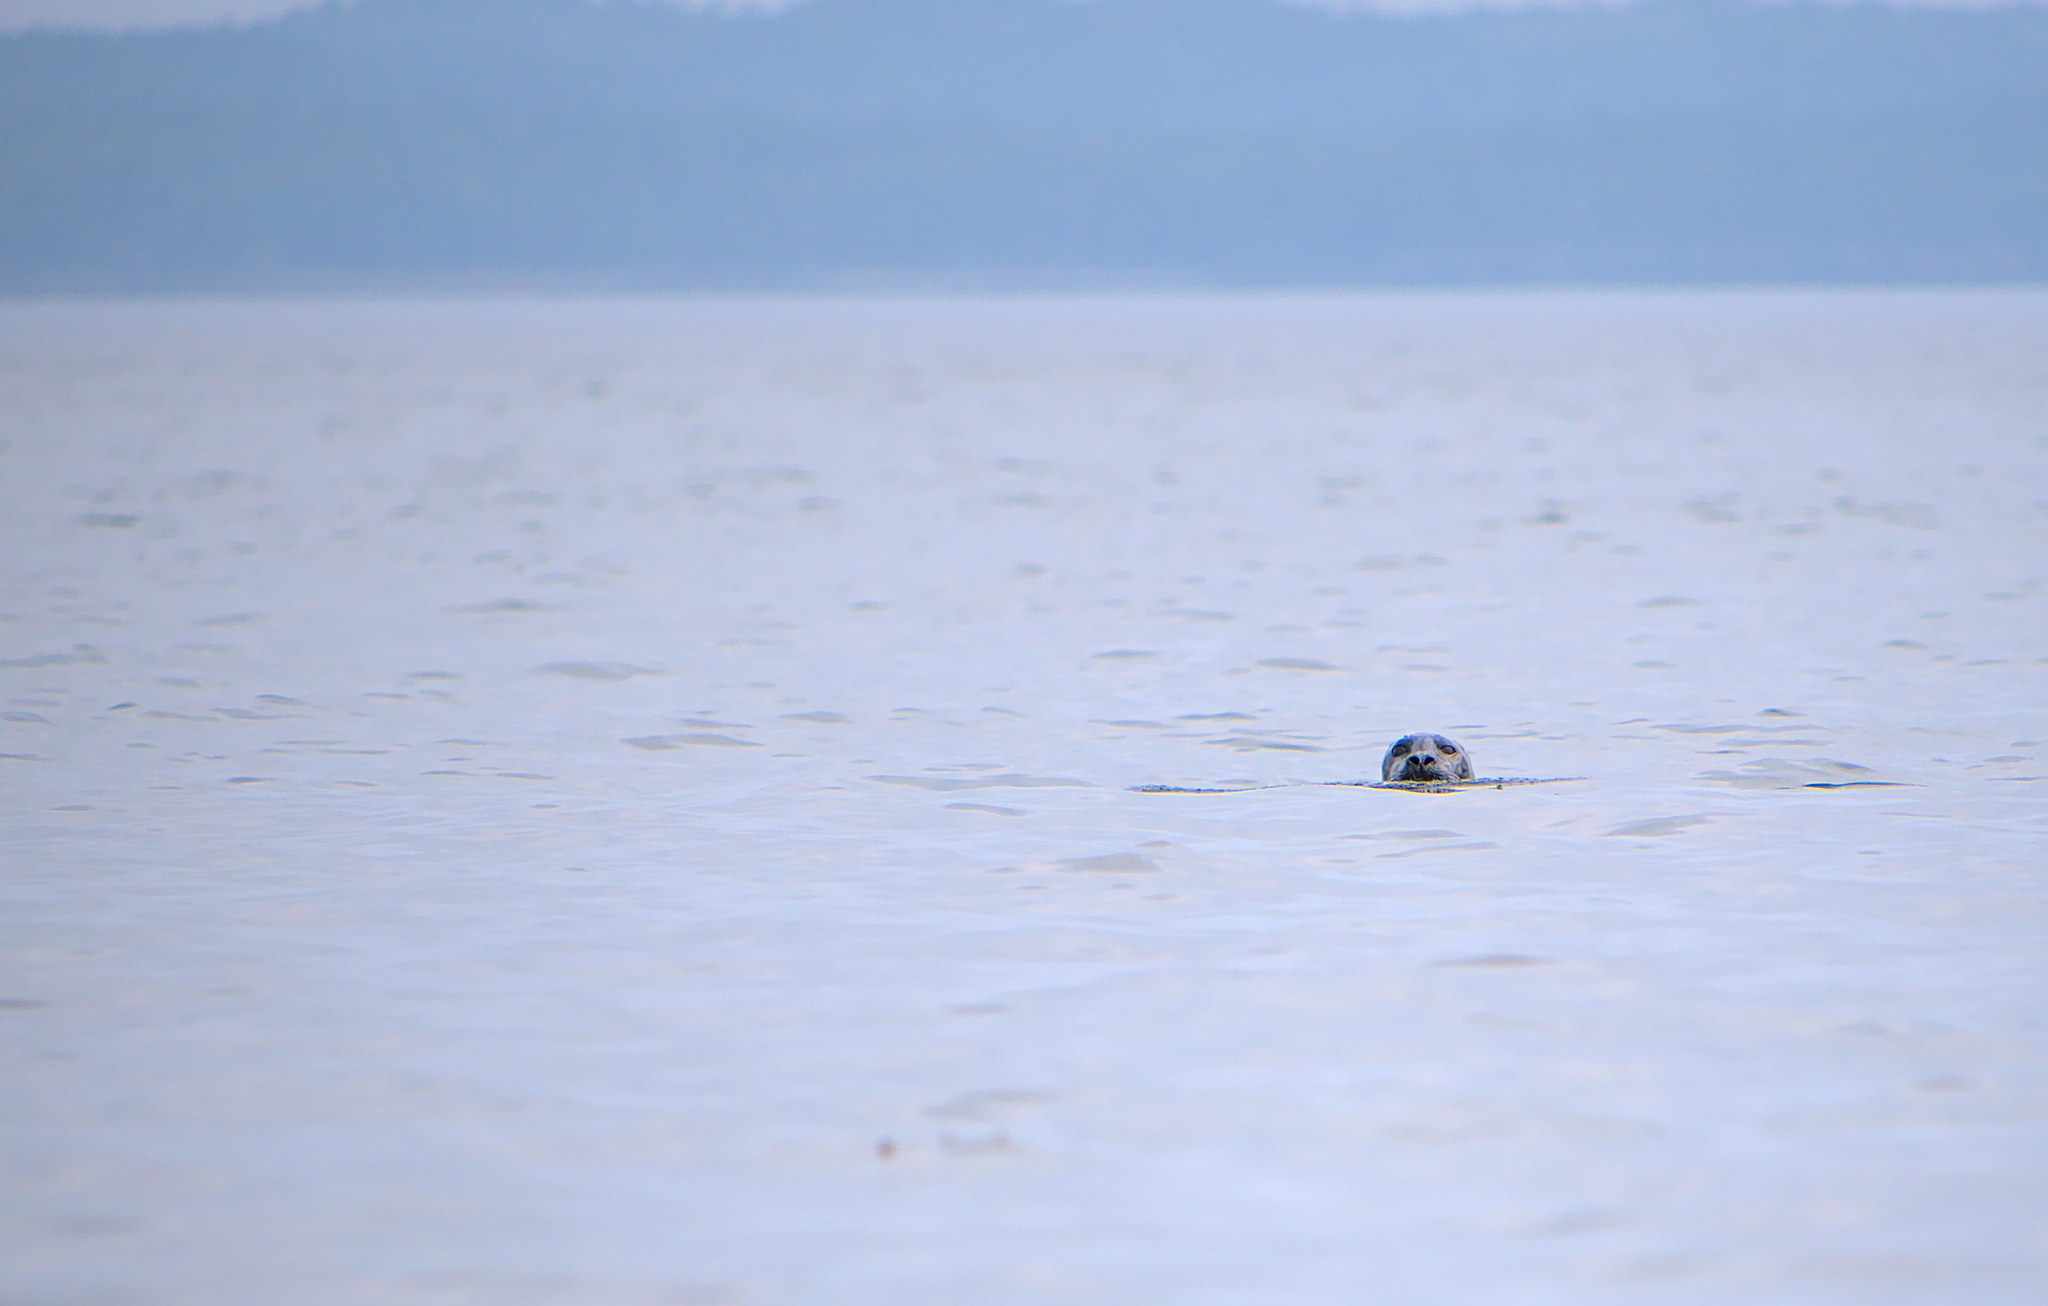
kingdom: Animalia
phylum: Chordata
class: Mammalia
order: Carnivora
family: Phocidae
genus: Phoca
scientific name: Phoca vitulina
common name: Harbor seal
